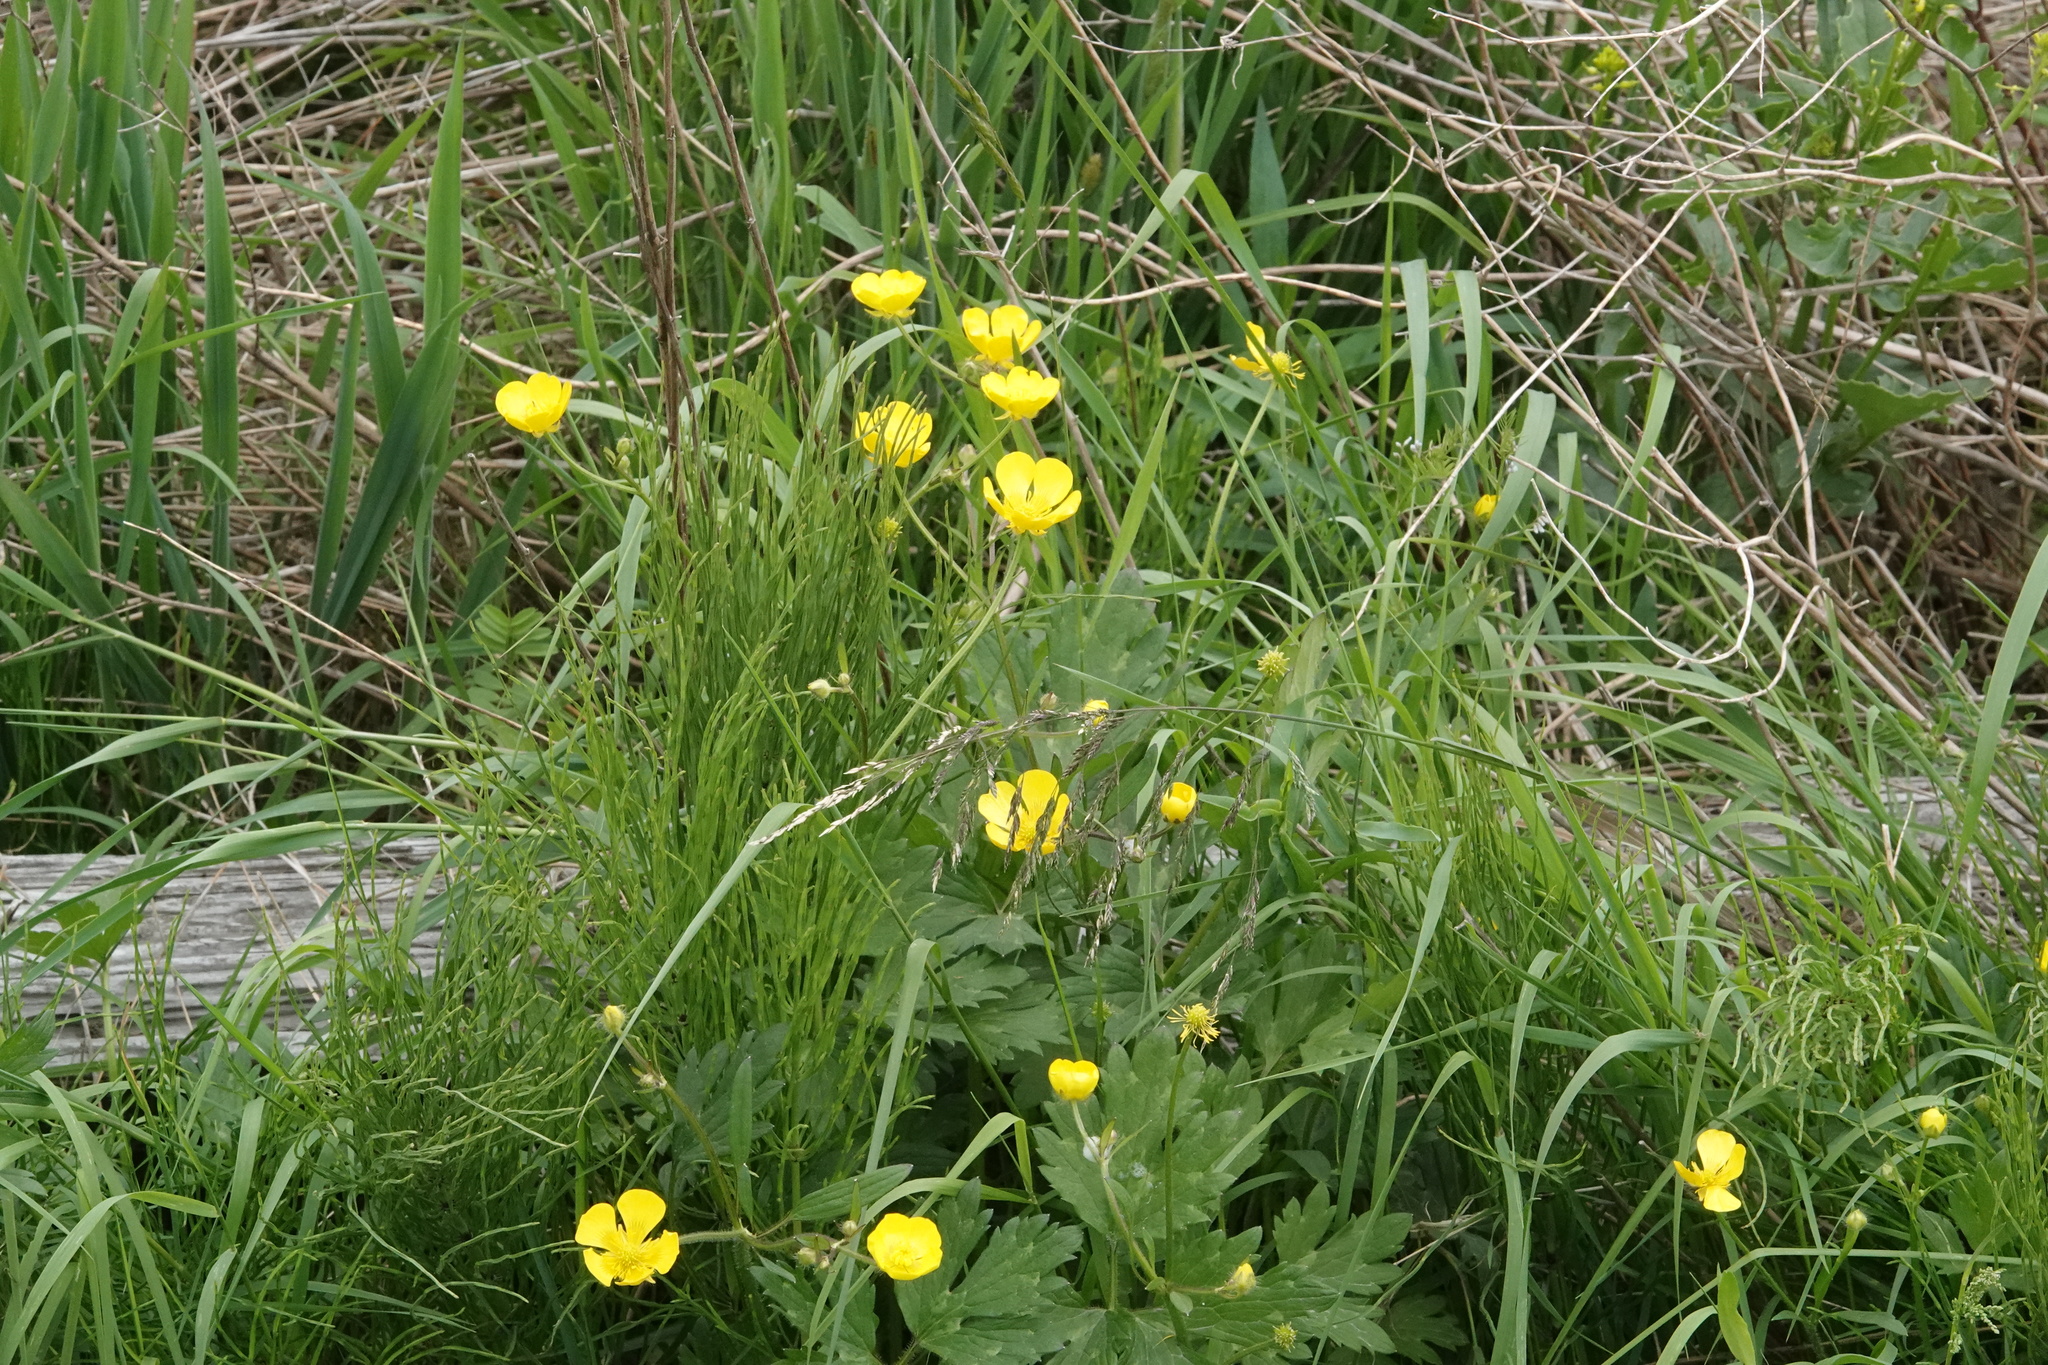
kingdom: Plantae
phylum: Tracheophyta
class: Magnoliopsida
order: Ranunculales
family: Ranunculaceae
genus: Ranunculus
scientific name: Ranunculus repens
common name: Creeping buttercup
